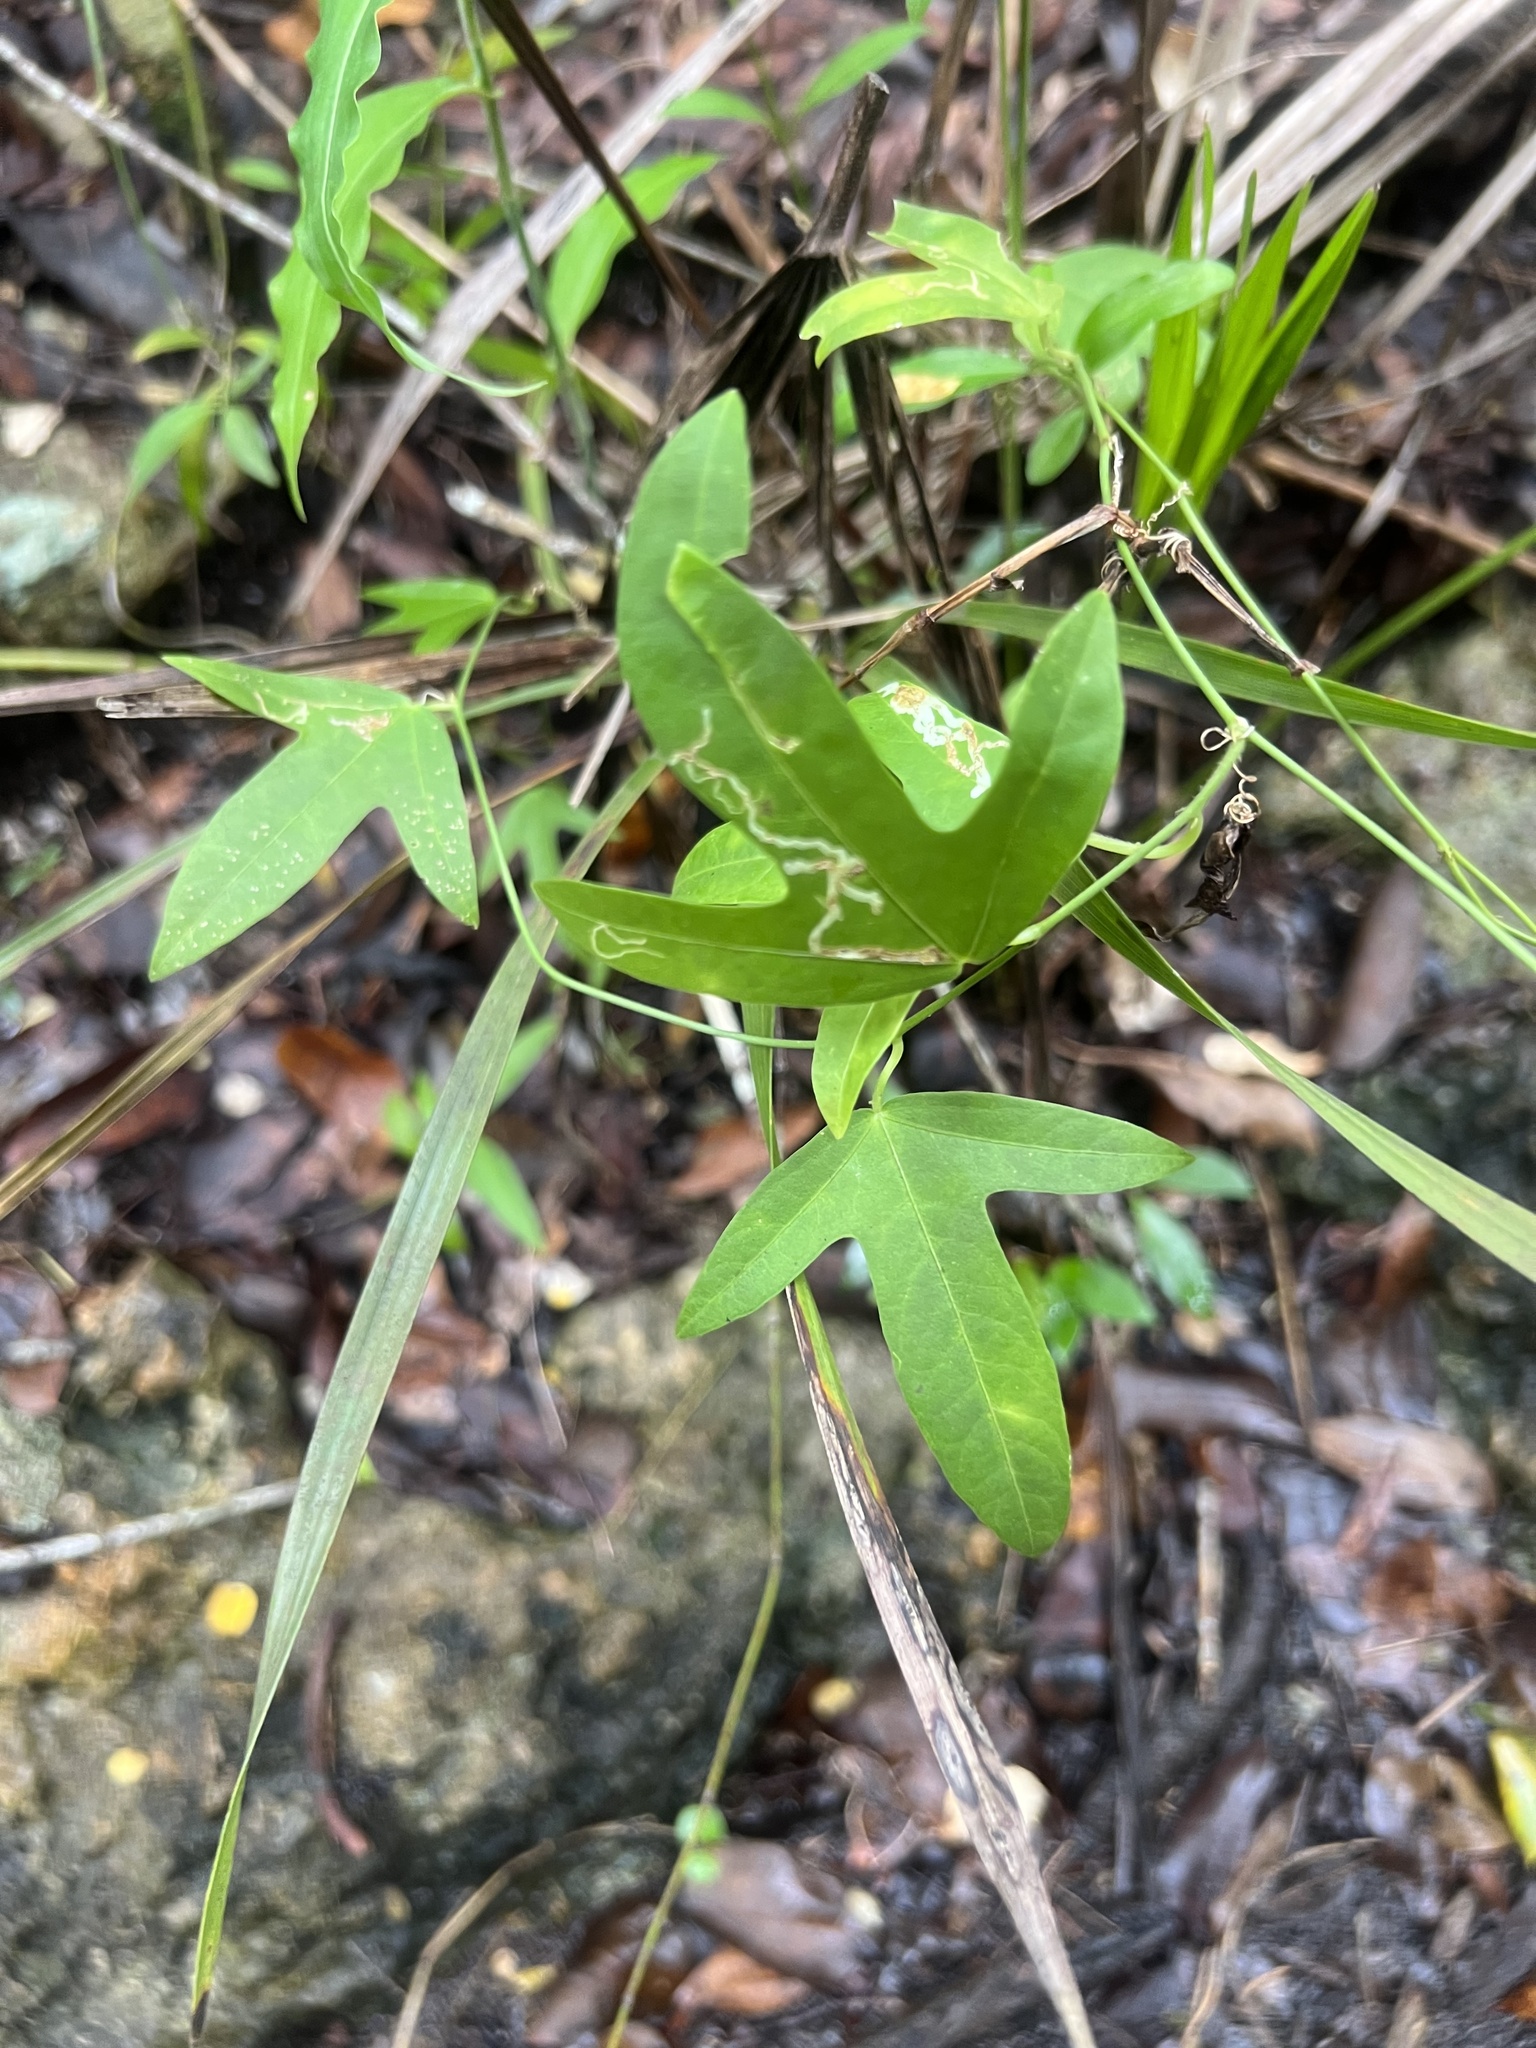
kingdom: Plantae
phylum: Tracheophyta
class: Magnoliopsida
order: Malpighiales
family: Passifloraceae
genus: Passiflora
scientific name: Passiflora pallida
